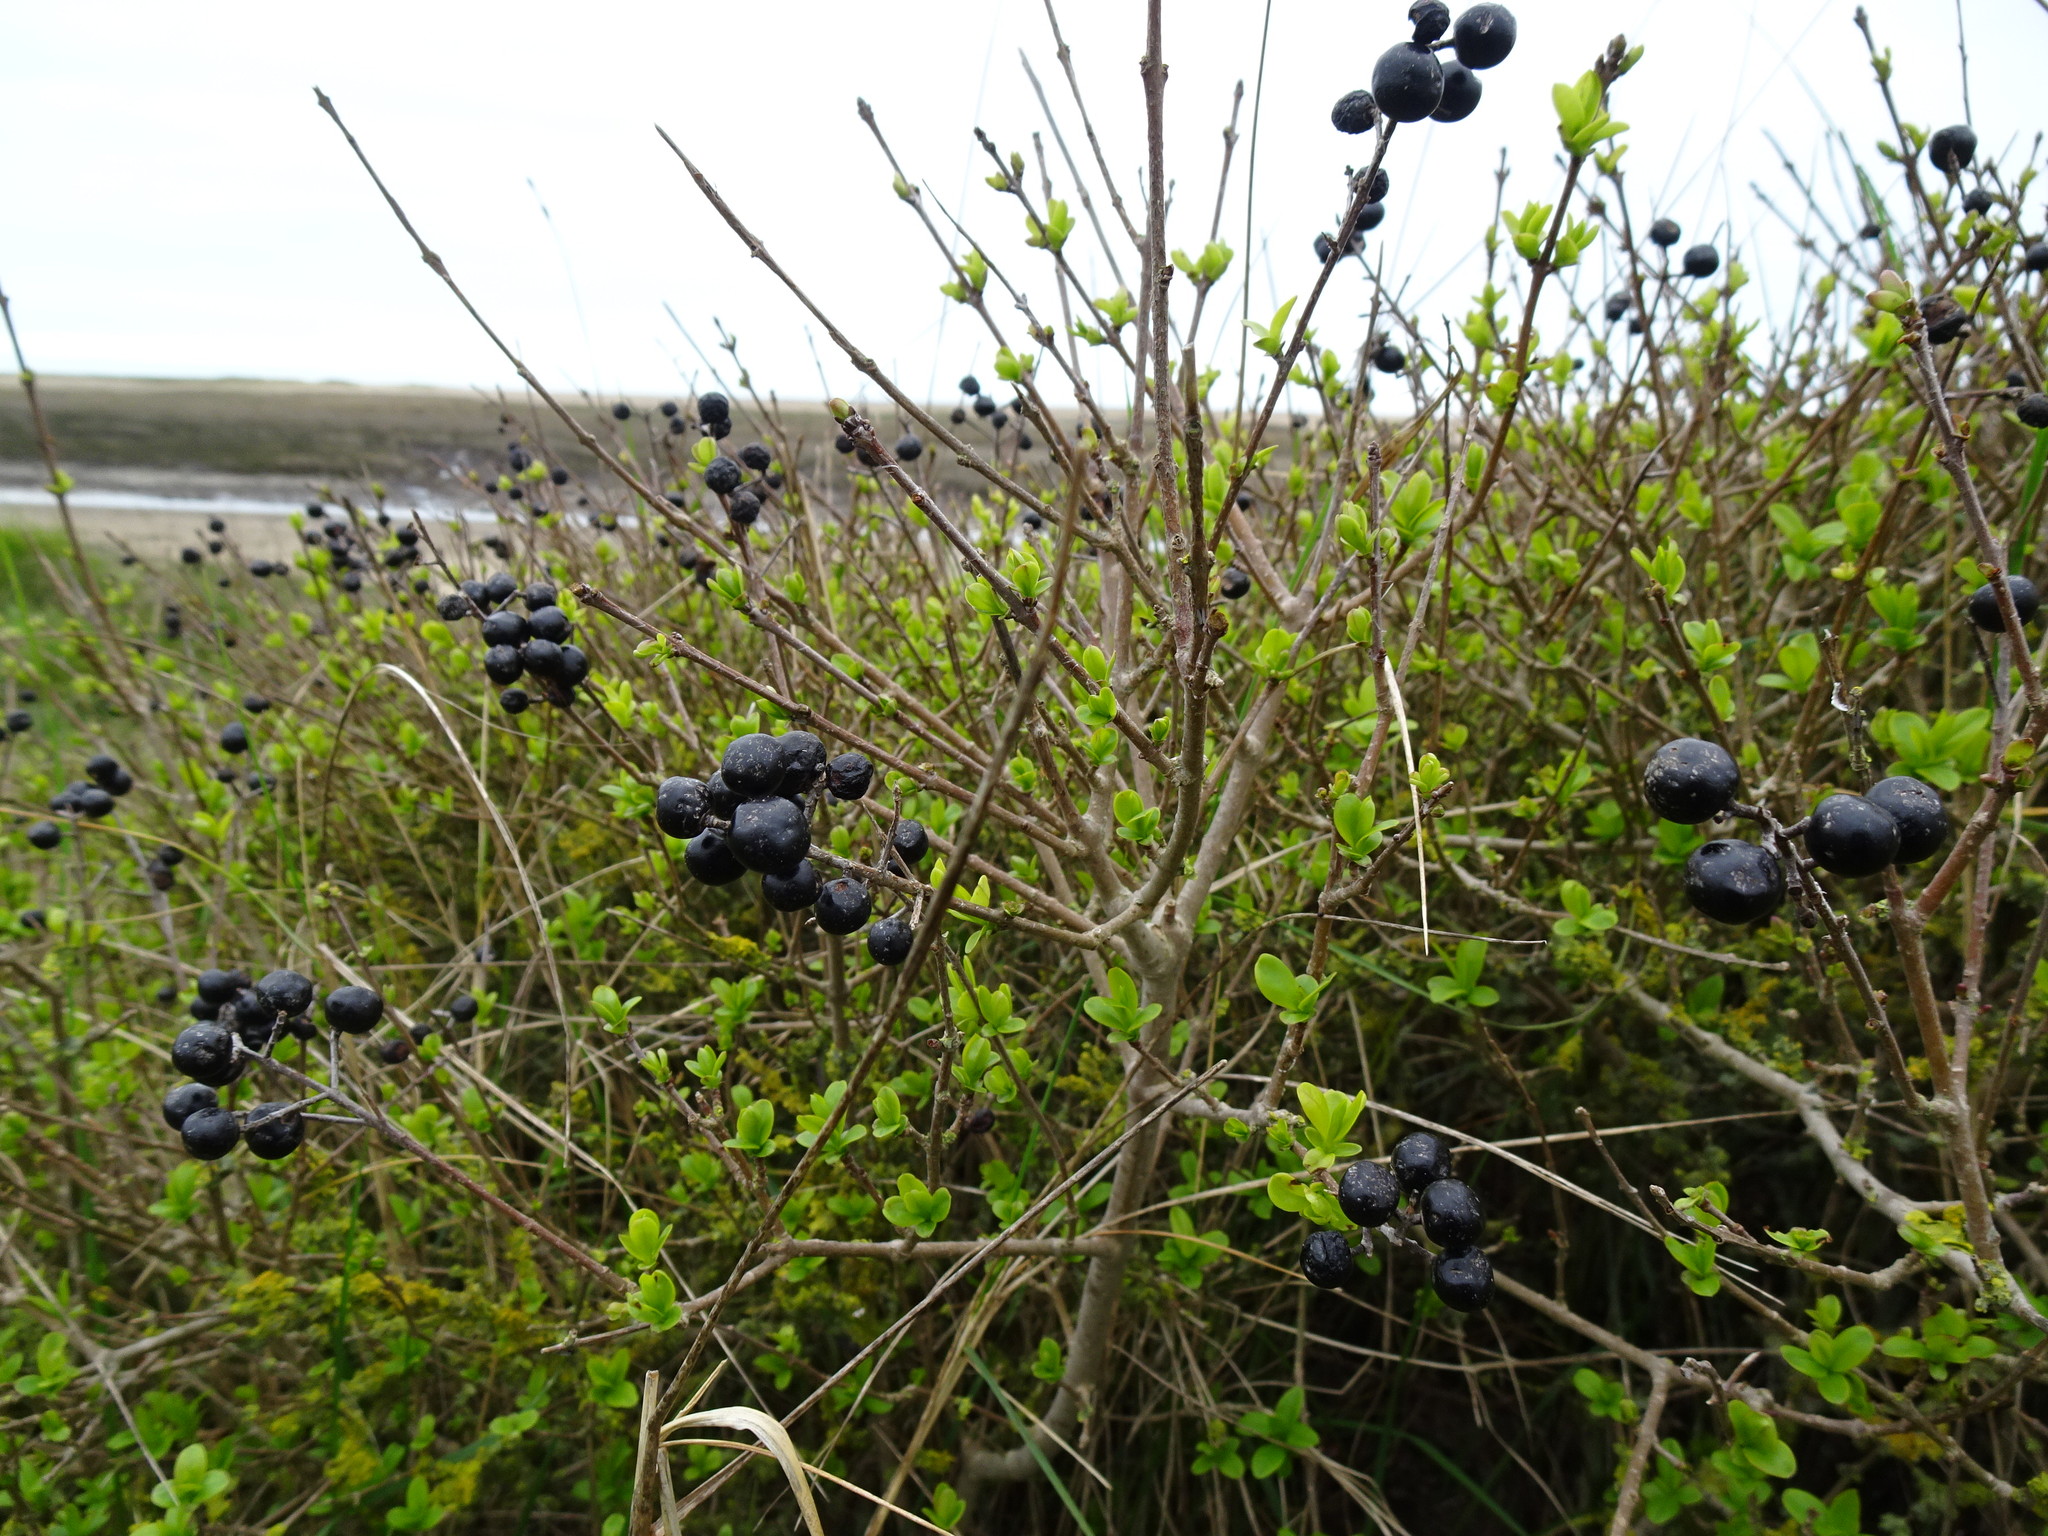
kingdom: Plantae
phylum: Tracheophyta
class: Magnoliopsida
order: Lamiales
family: Oleaceae
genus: Ligustrum
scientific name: Ligustrum vulgare
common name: Wild privet
